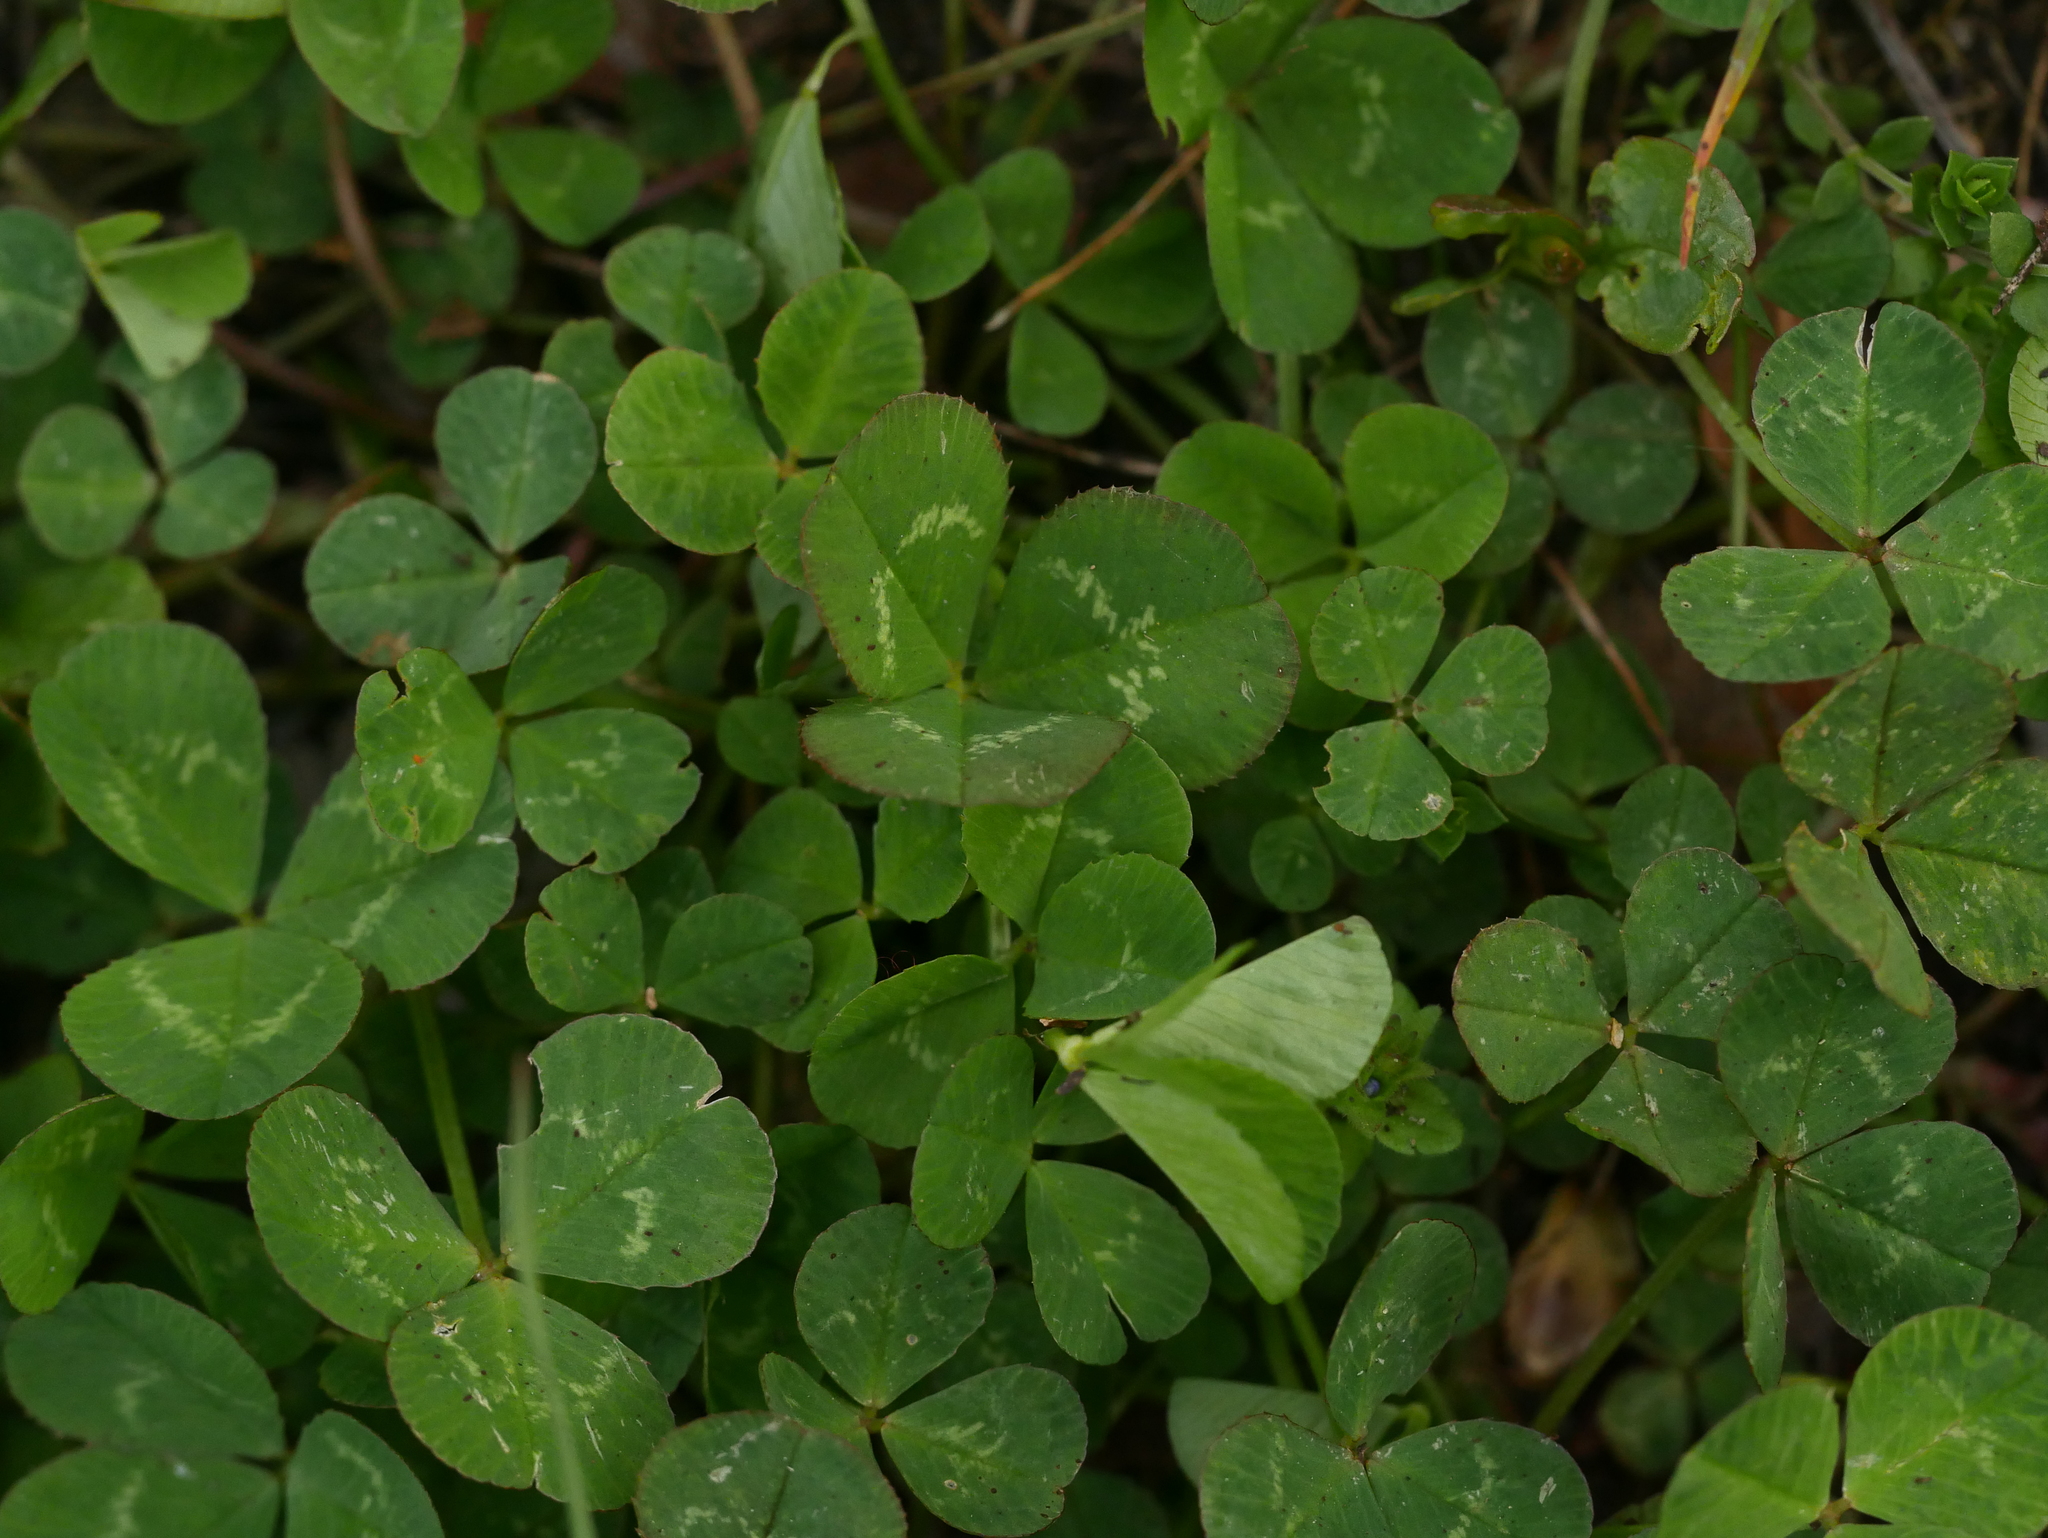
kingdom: Plantae
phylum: Tracheophyta
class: Magnoliopsida
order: Fabales
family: Fabaceae
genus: Trifolium
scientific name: Trifolium repens
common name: White clover
